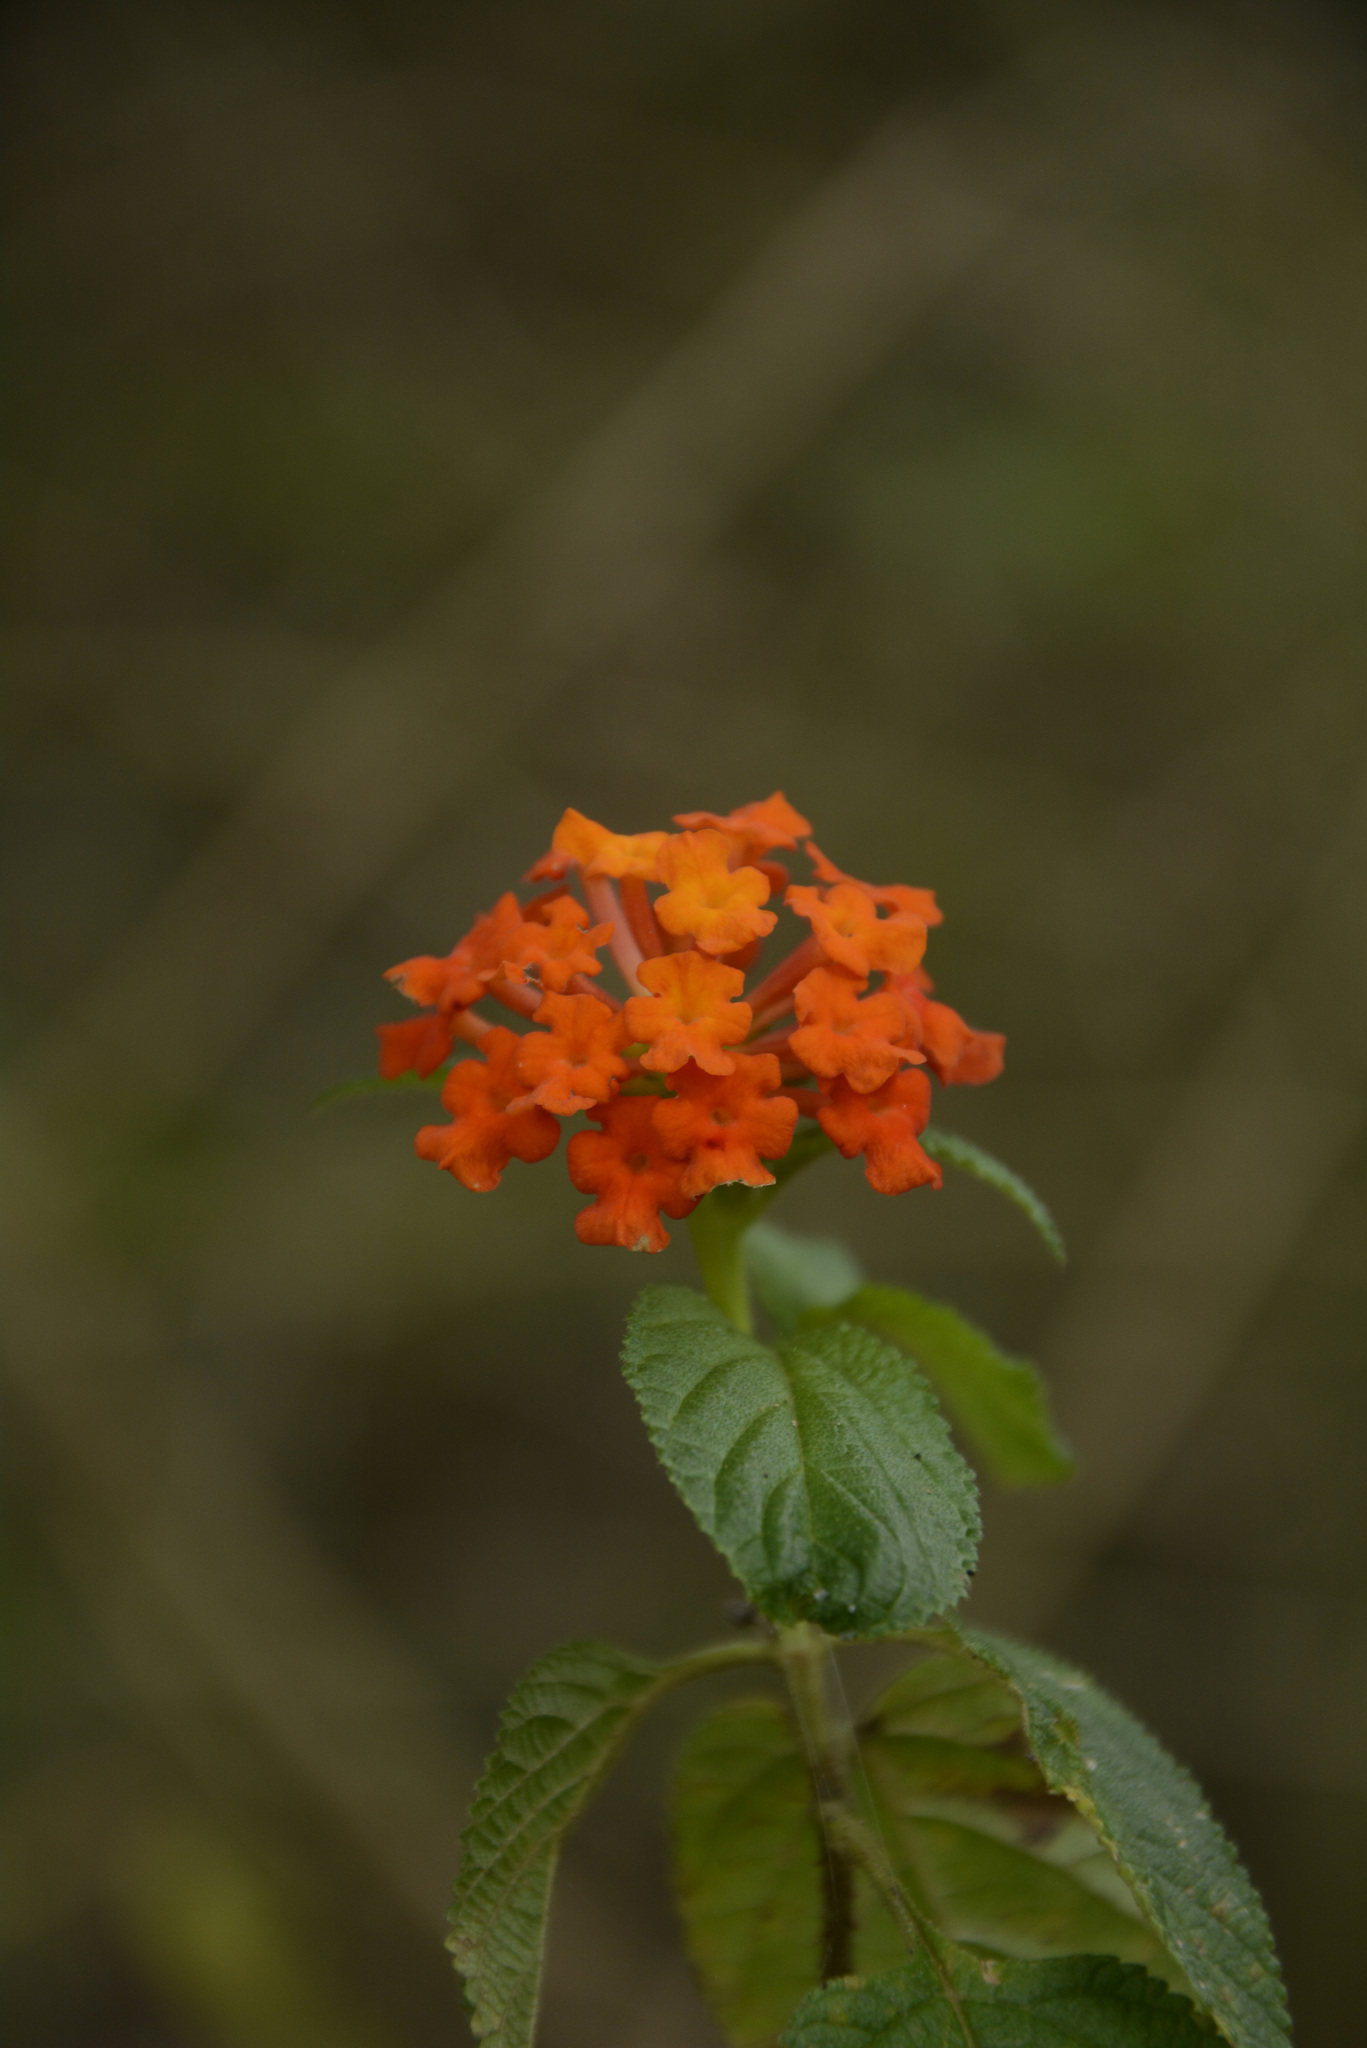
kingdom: Plantae
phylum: Tracheophyta
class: Magnoliopsida
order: Lamiales
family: Verbenaceae
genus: Lantana
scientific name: Lantana camara
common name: Lantana
